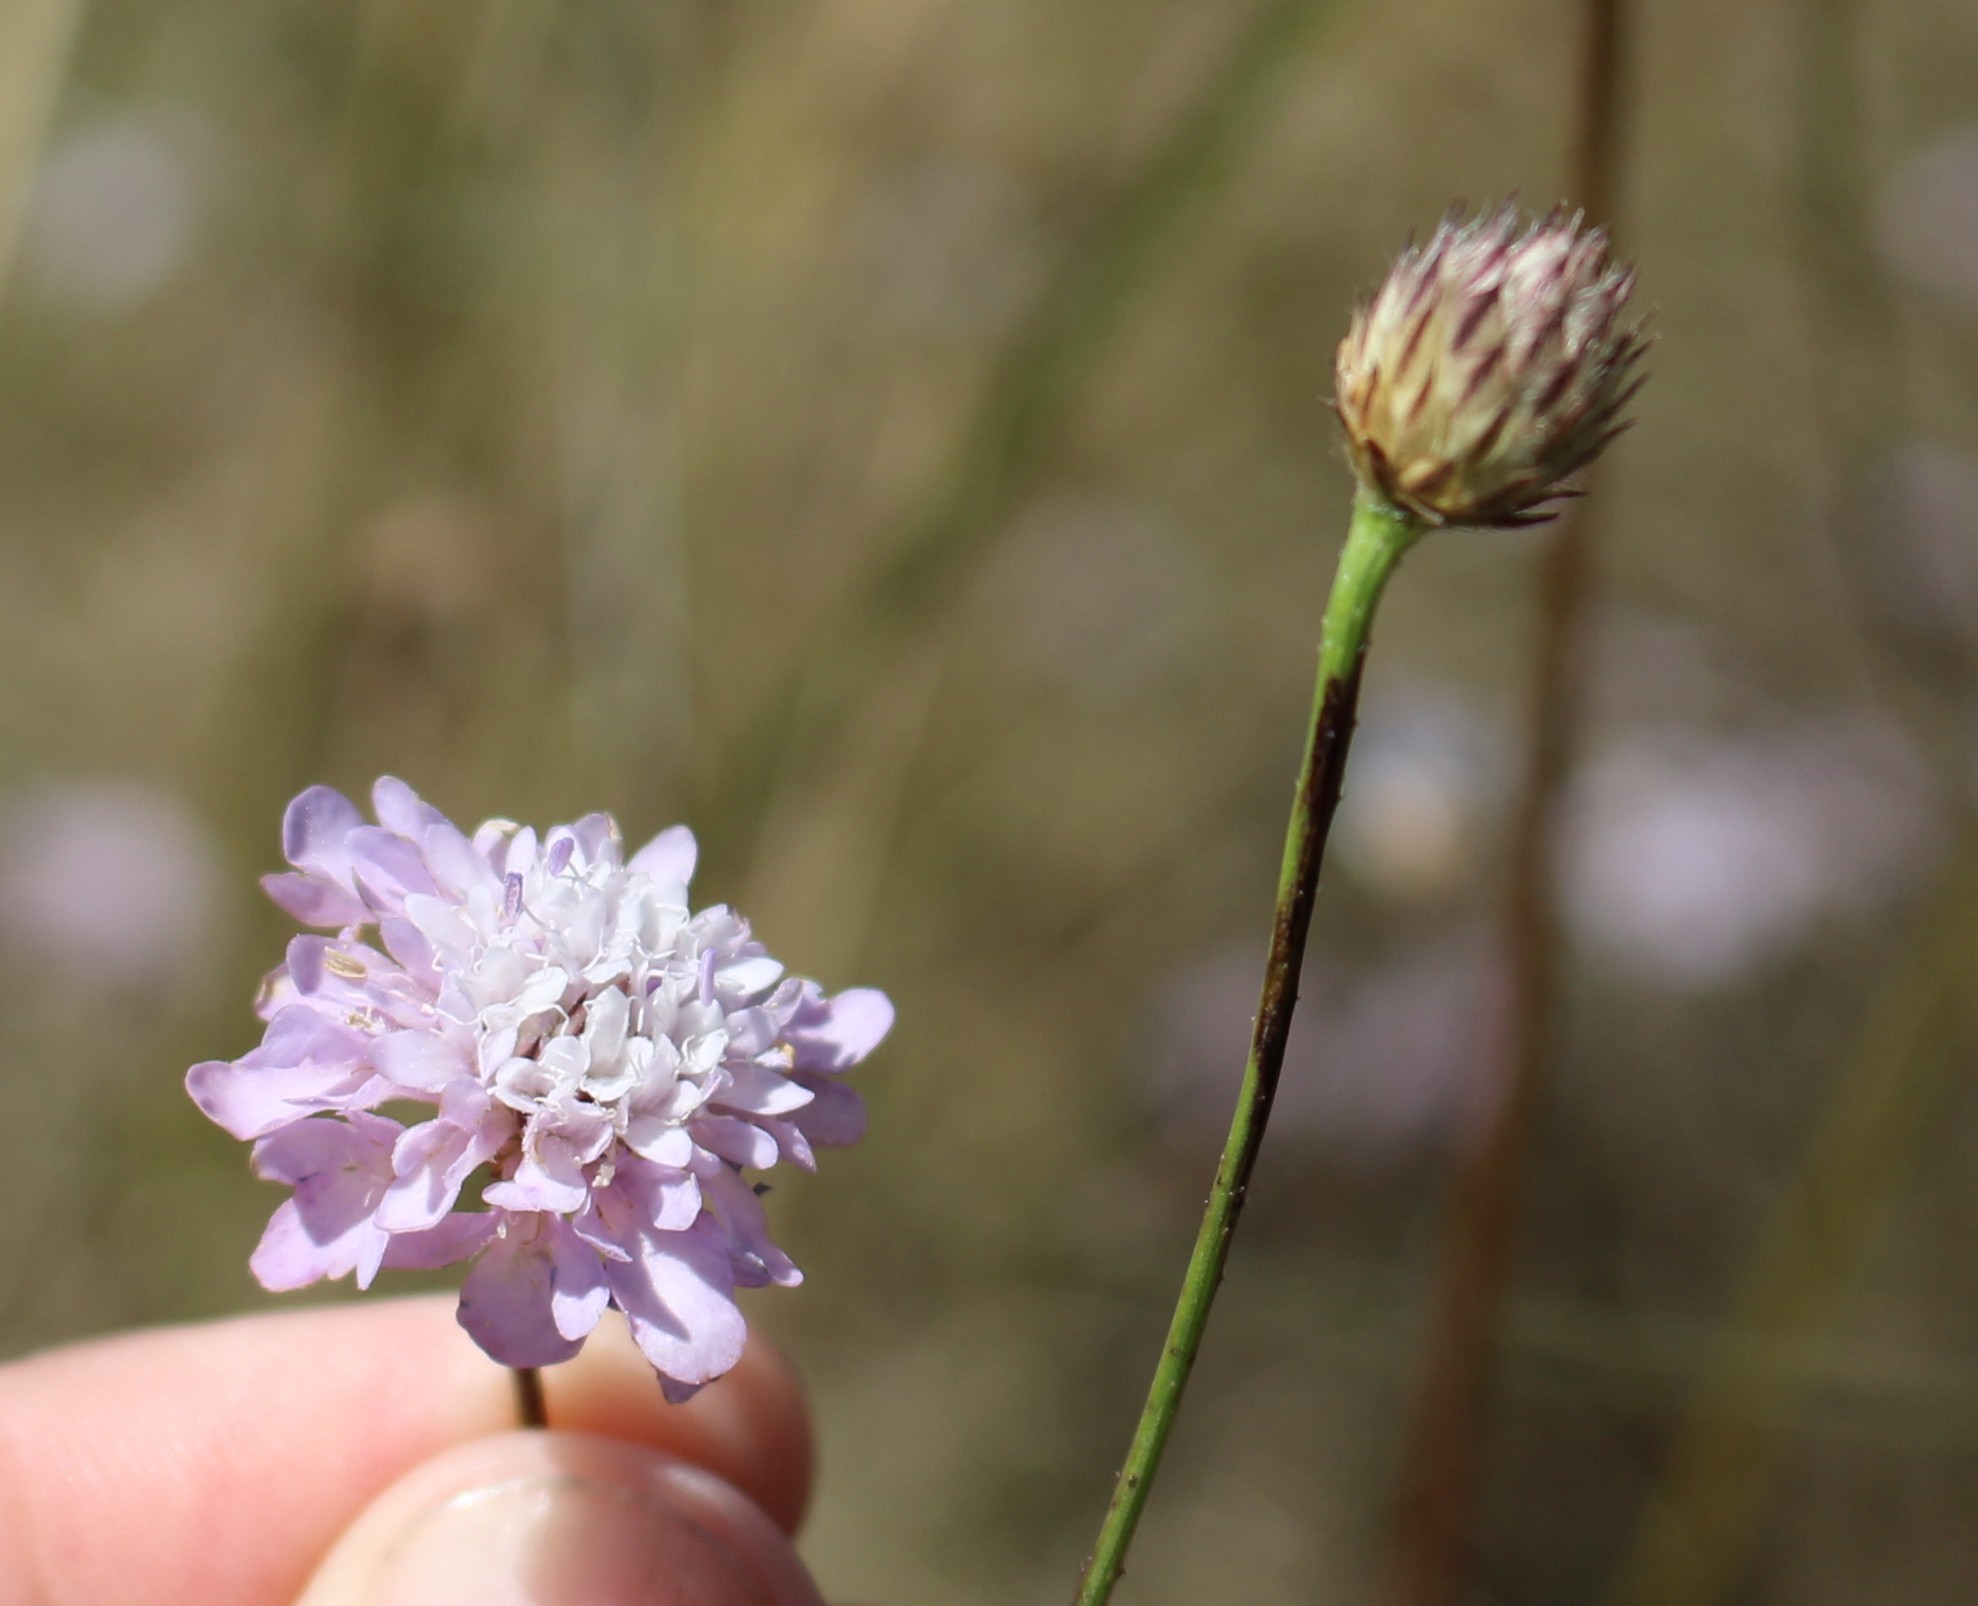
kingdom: Plantae
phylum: Tracheophyta
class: Magnoliopsida
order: Dipsacales
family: Caprifoliaceae
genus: Cephalaria
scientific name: Cephalaria transsylvanica
